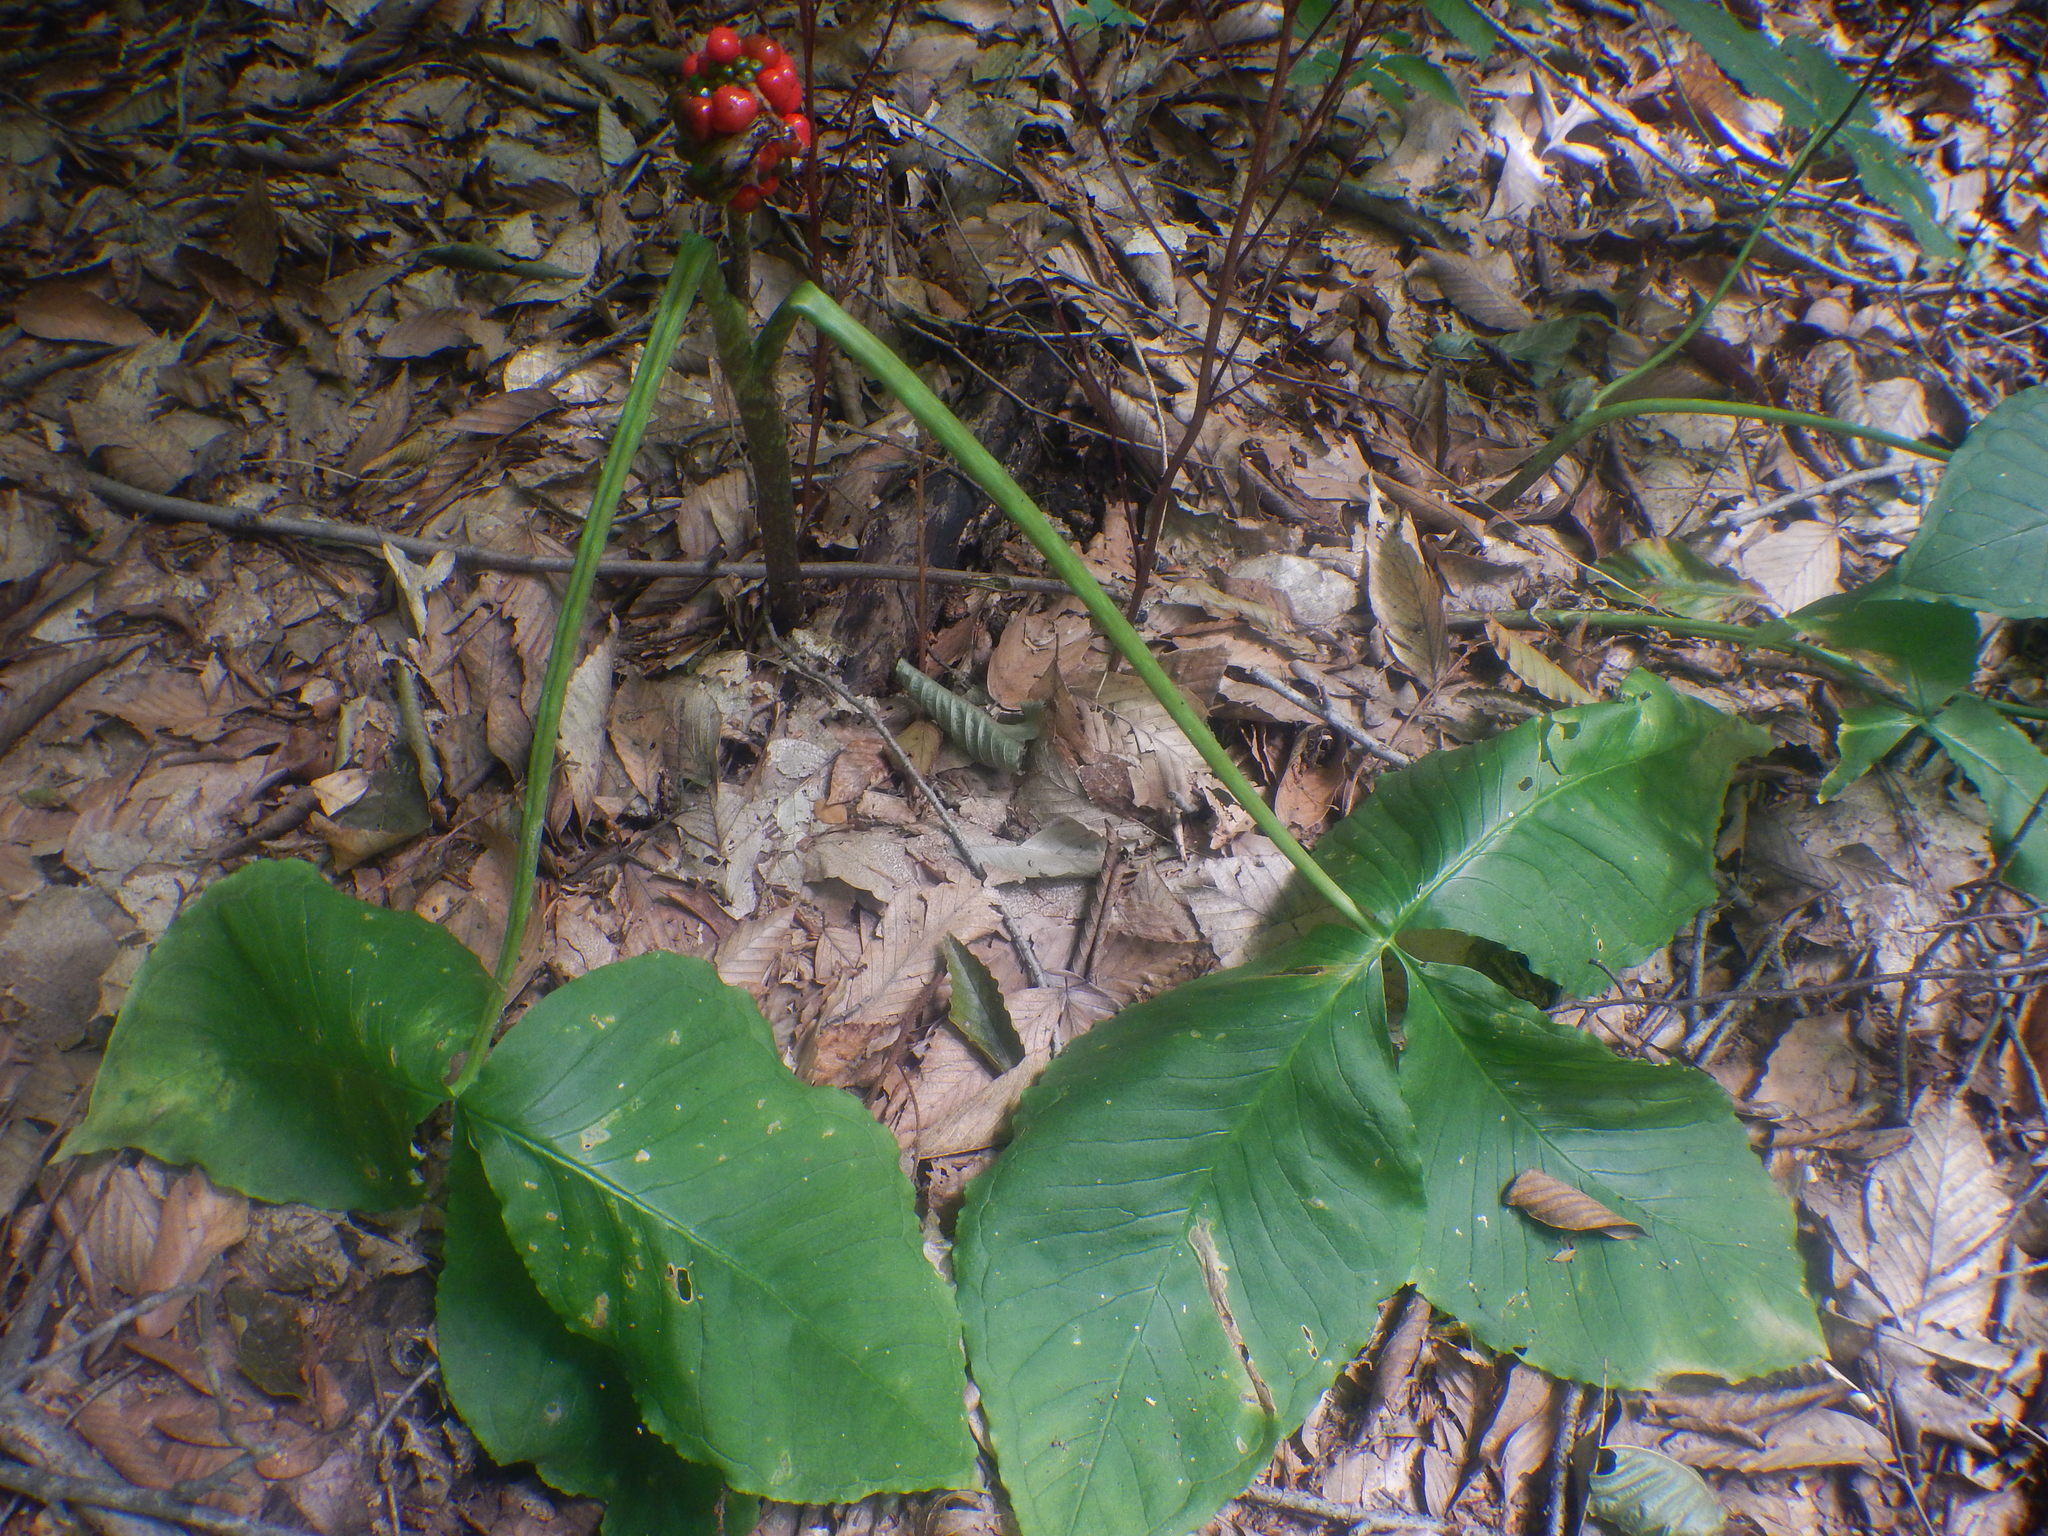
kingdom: Plantae
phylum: Tracheophyta
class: Liliopsida
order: Alismatales
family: Araceae
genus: Arisaema
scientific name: Arisaema triphyllum
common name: Jack-in-the-pulpit
